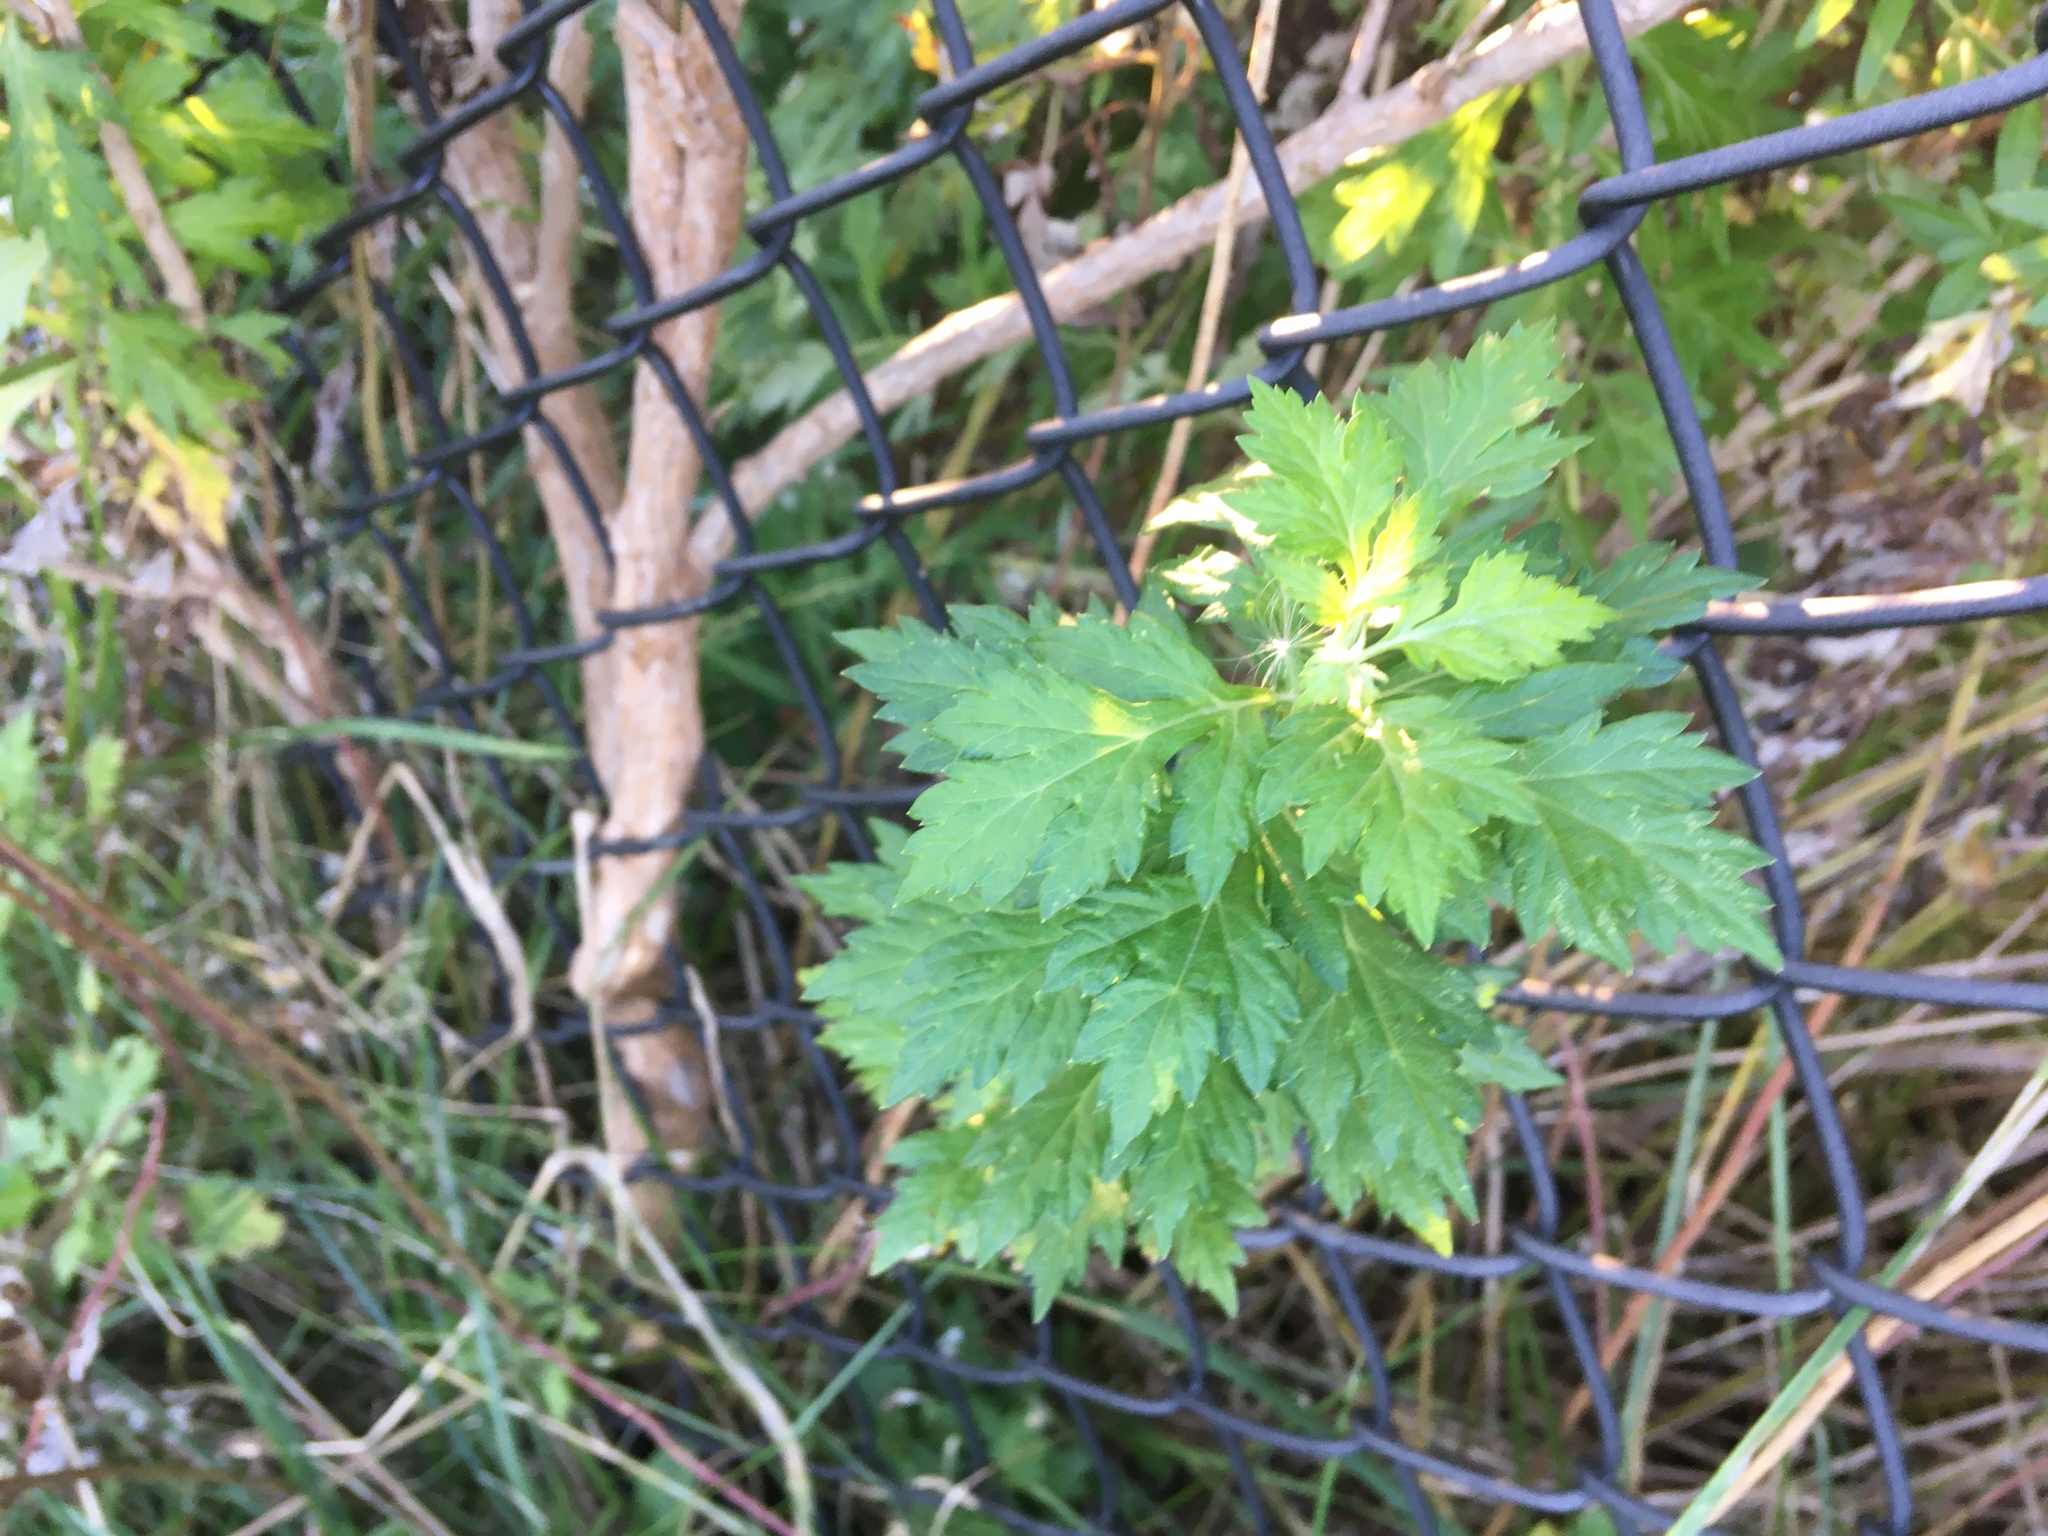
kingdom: Plantae
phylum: Tracheophyta
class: Magnoliopsida
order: Asterales
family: Asteraceae
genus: Artemisia
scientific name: Artemisia vulgaris
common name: Mugwort
